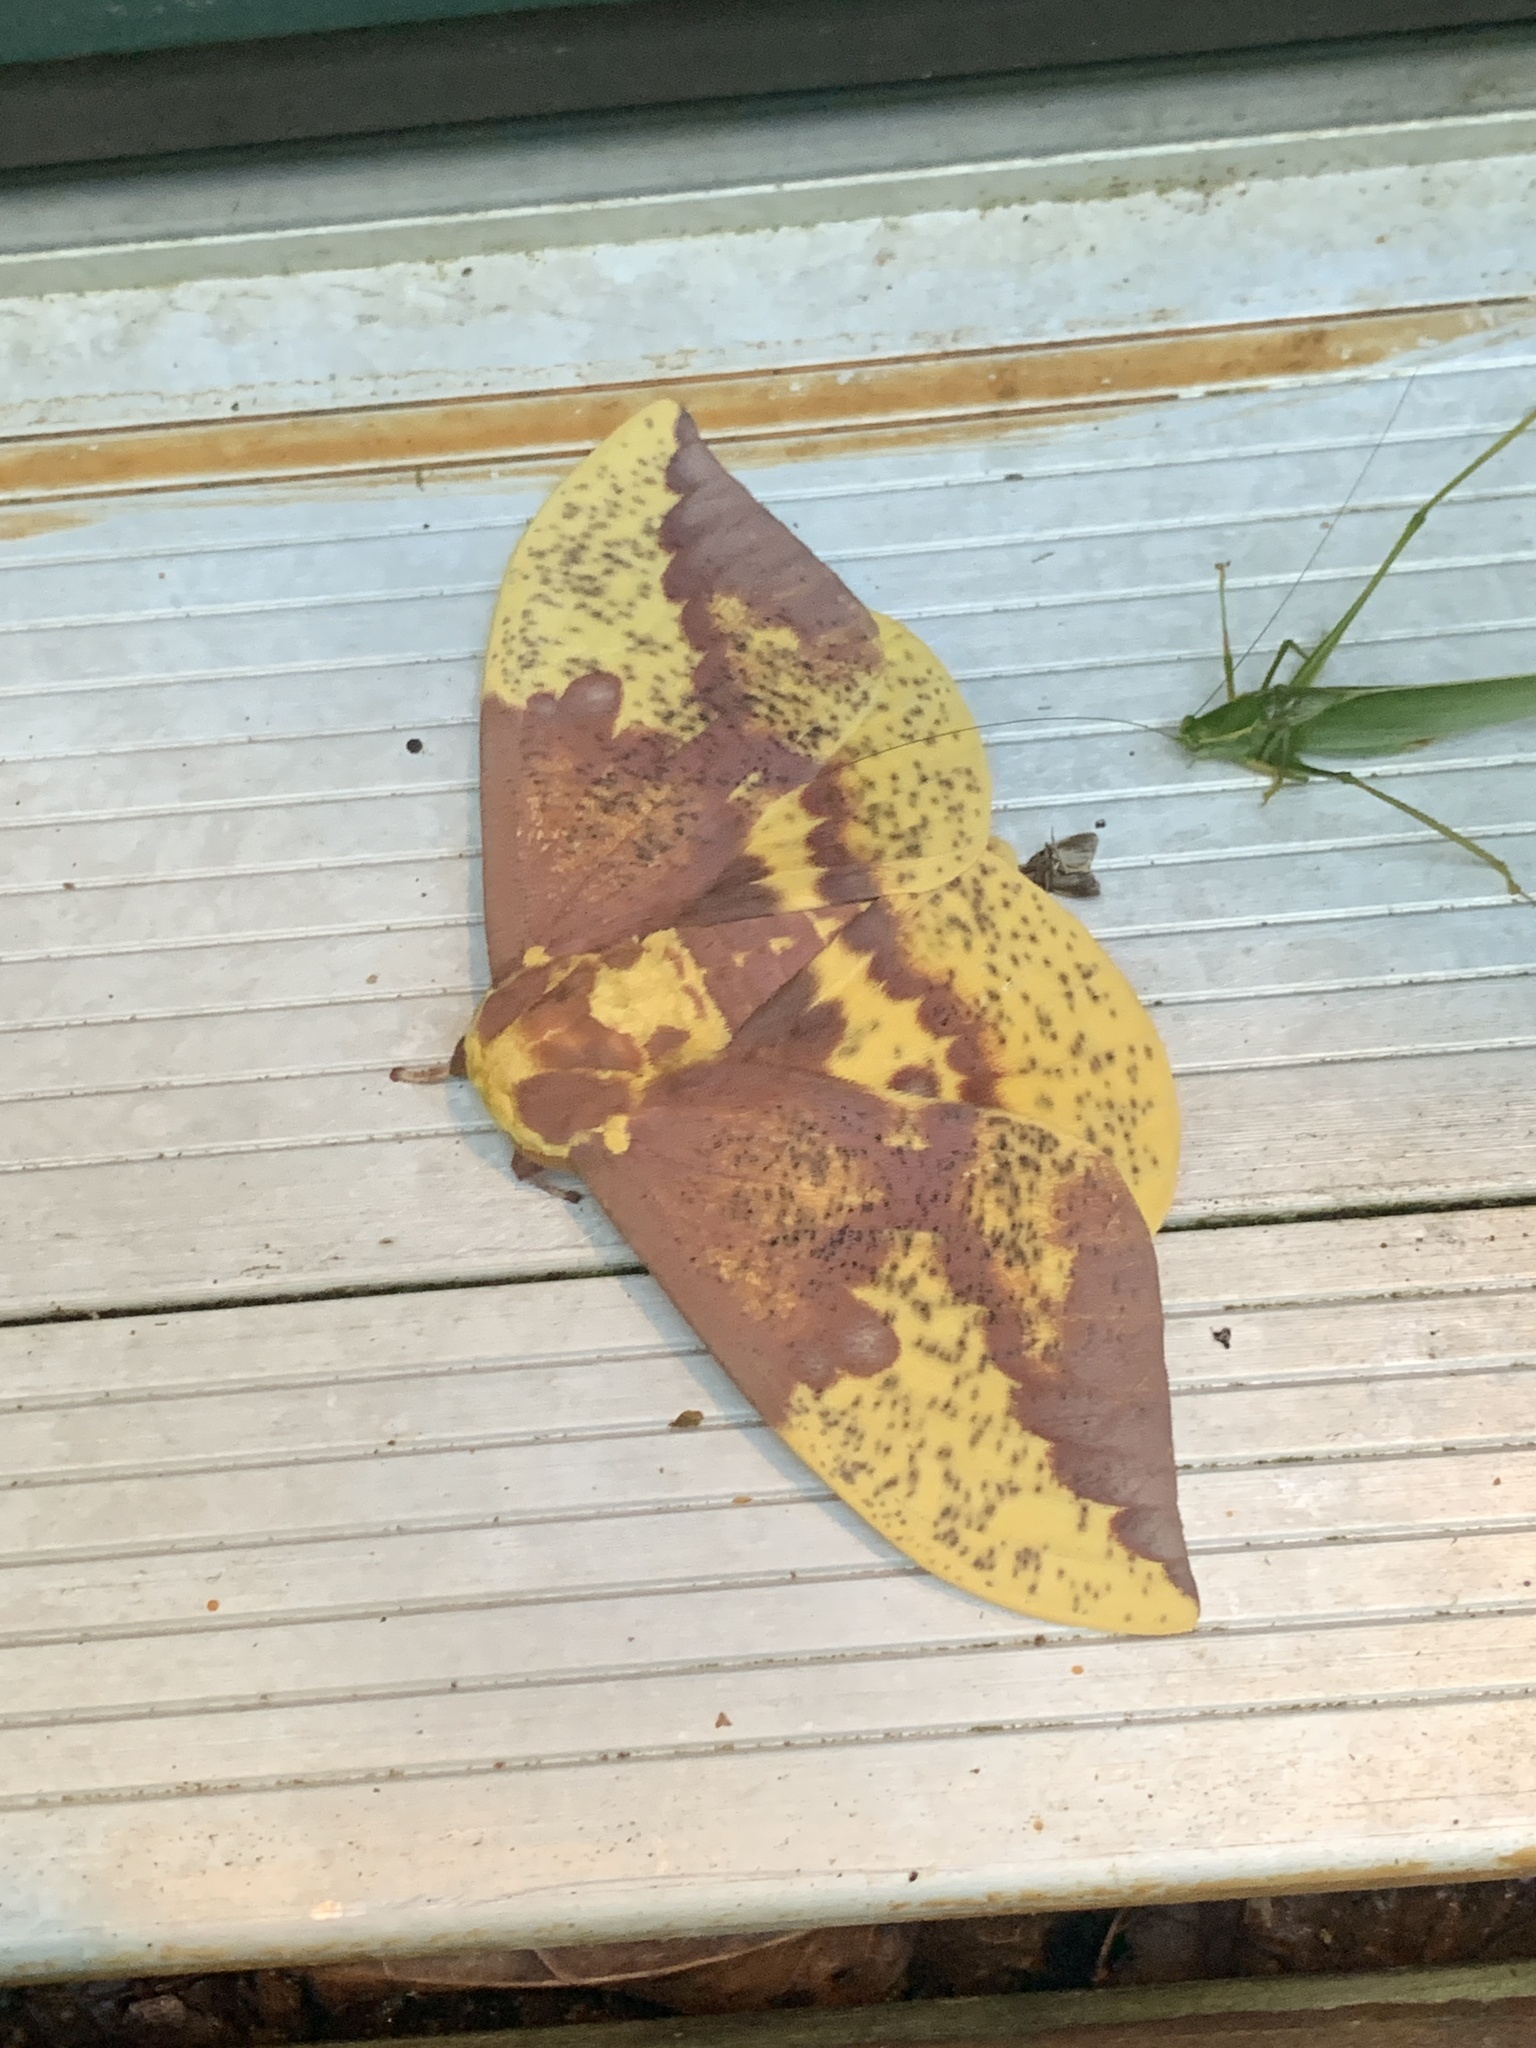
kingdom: Animalia
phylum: Arthropoda
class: Insecta
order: Lepidoptera
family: Saturniidae
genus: Eacles
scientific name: Eacles imperialis
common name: Imperial moth
